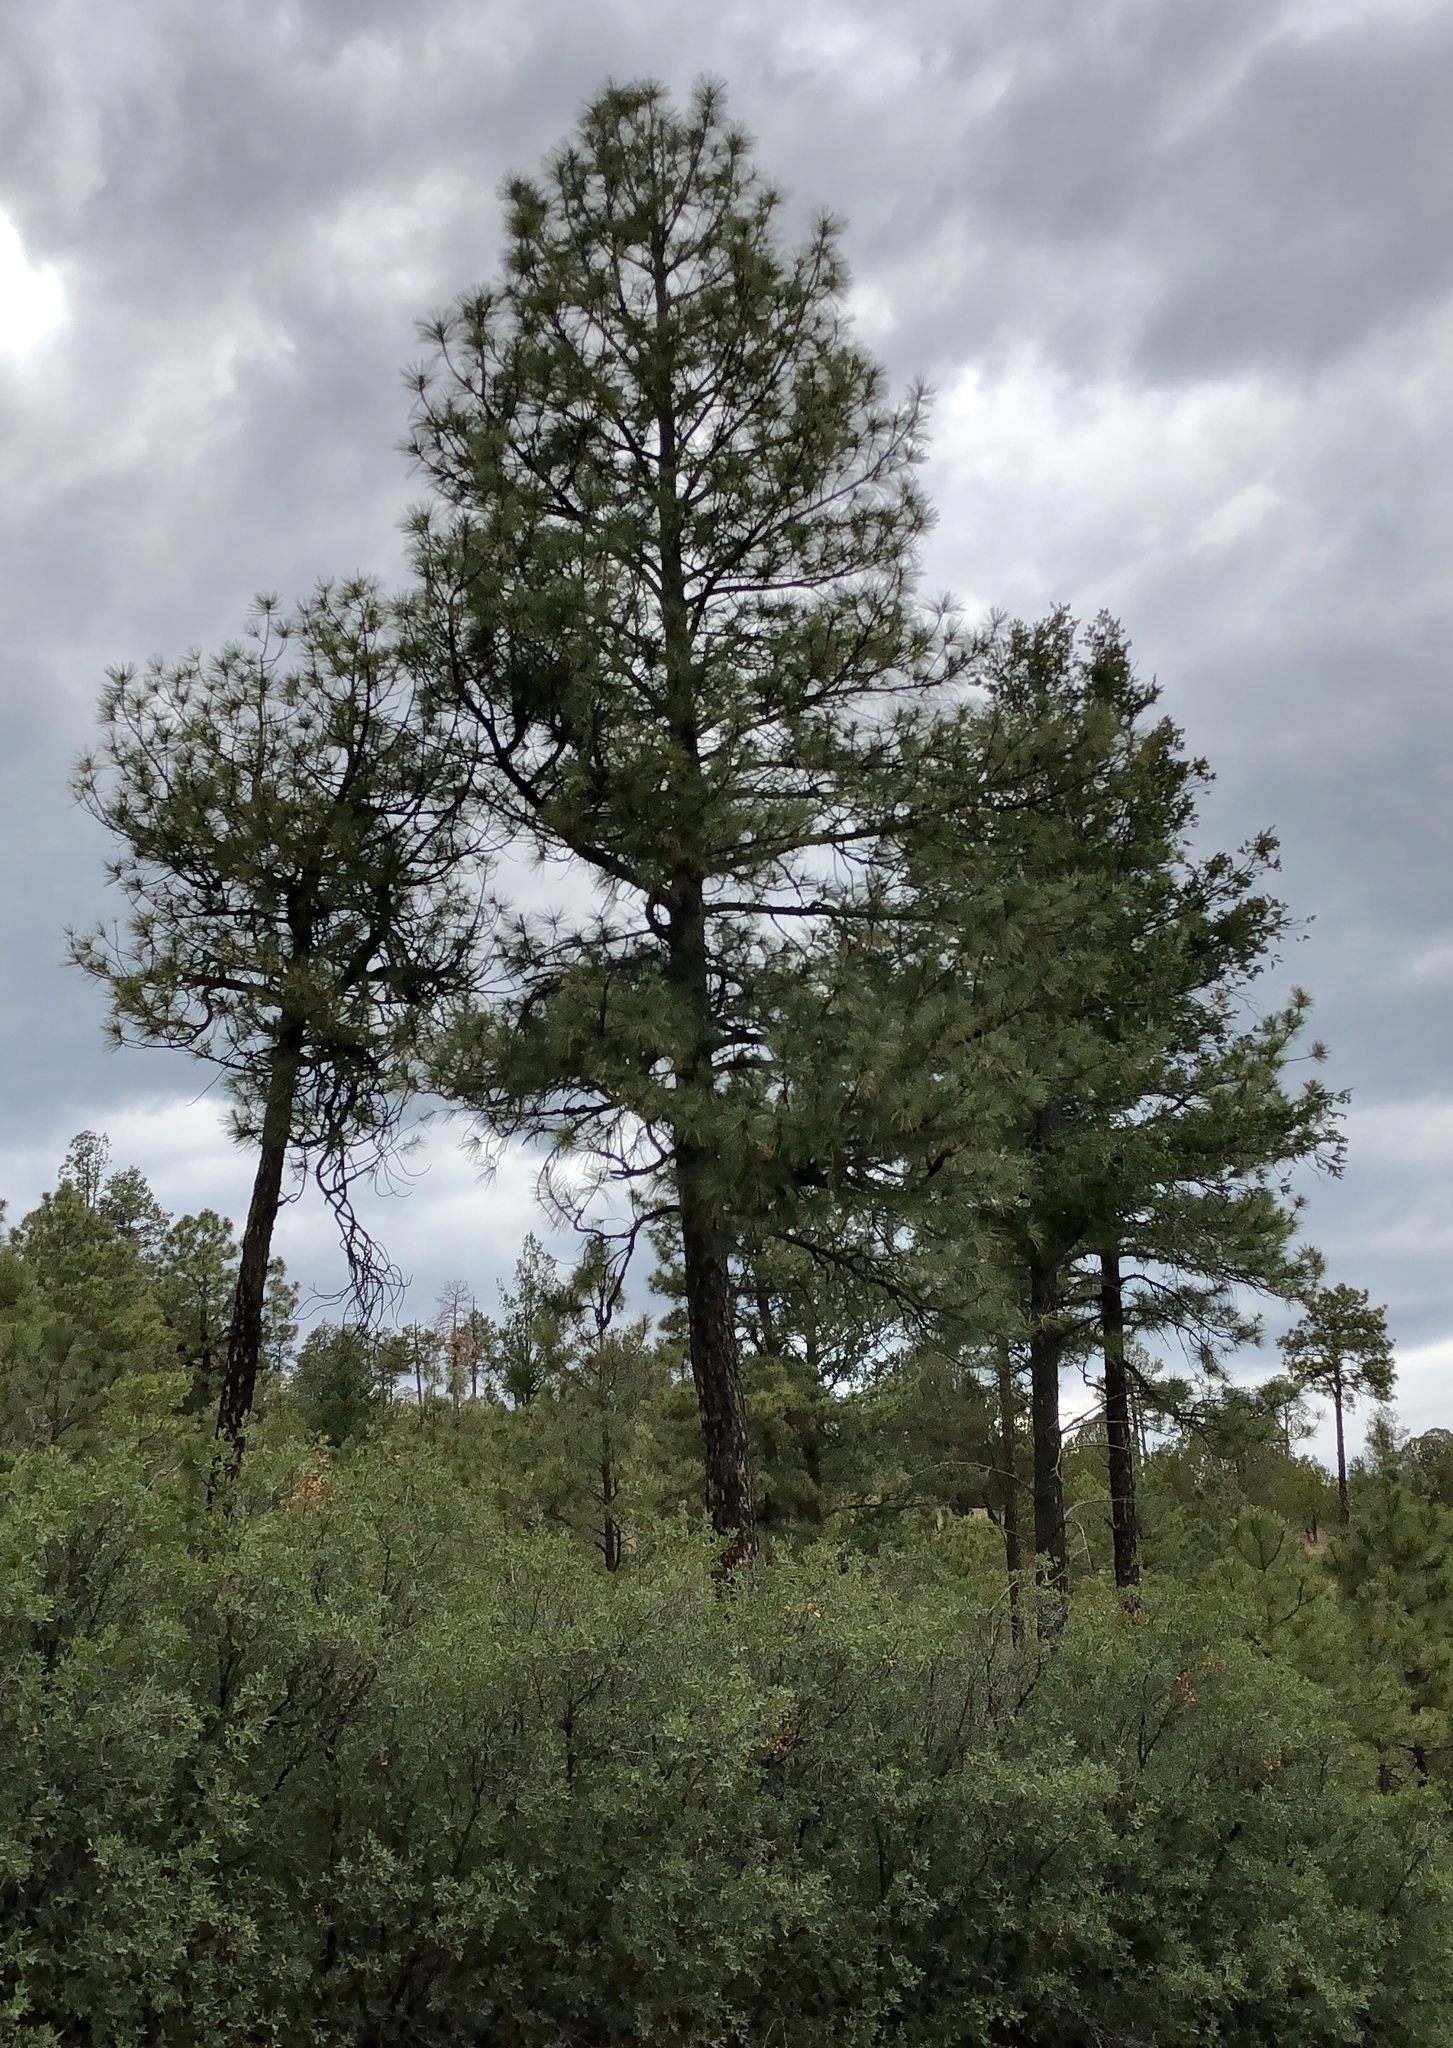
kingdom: Plantae
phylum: Tracheophyta
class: Pinopsida
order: Pinales
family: Pinaceae
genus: Pinus
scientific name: Pinus ponderosa
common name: Western yellow-pine
